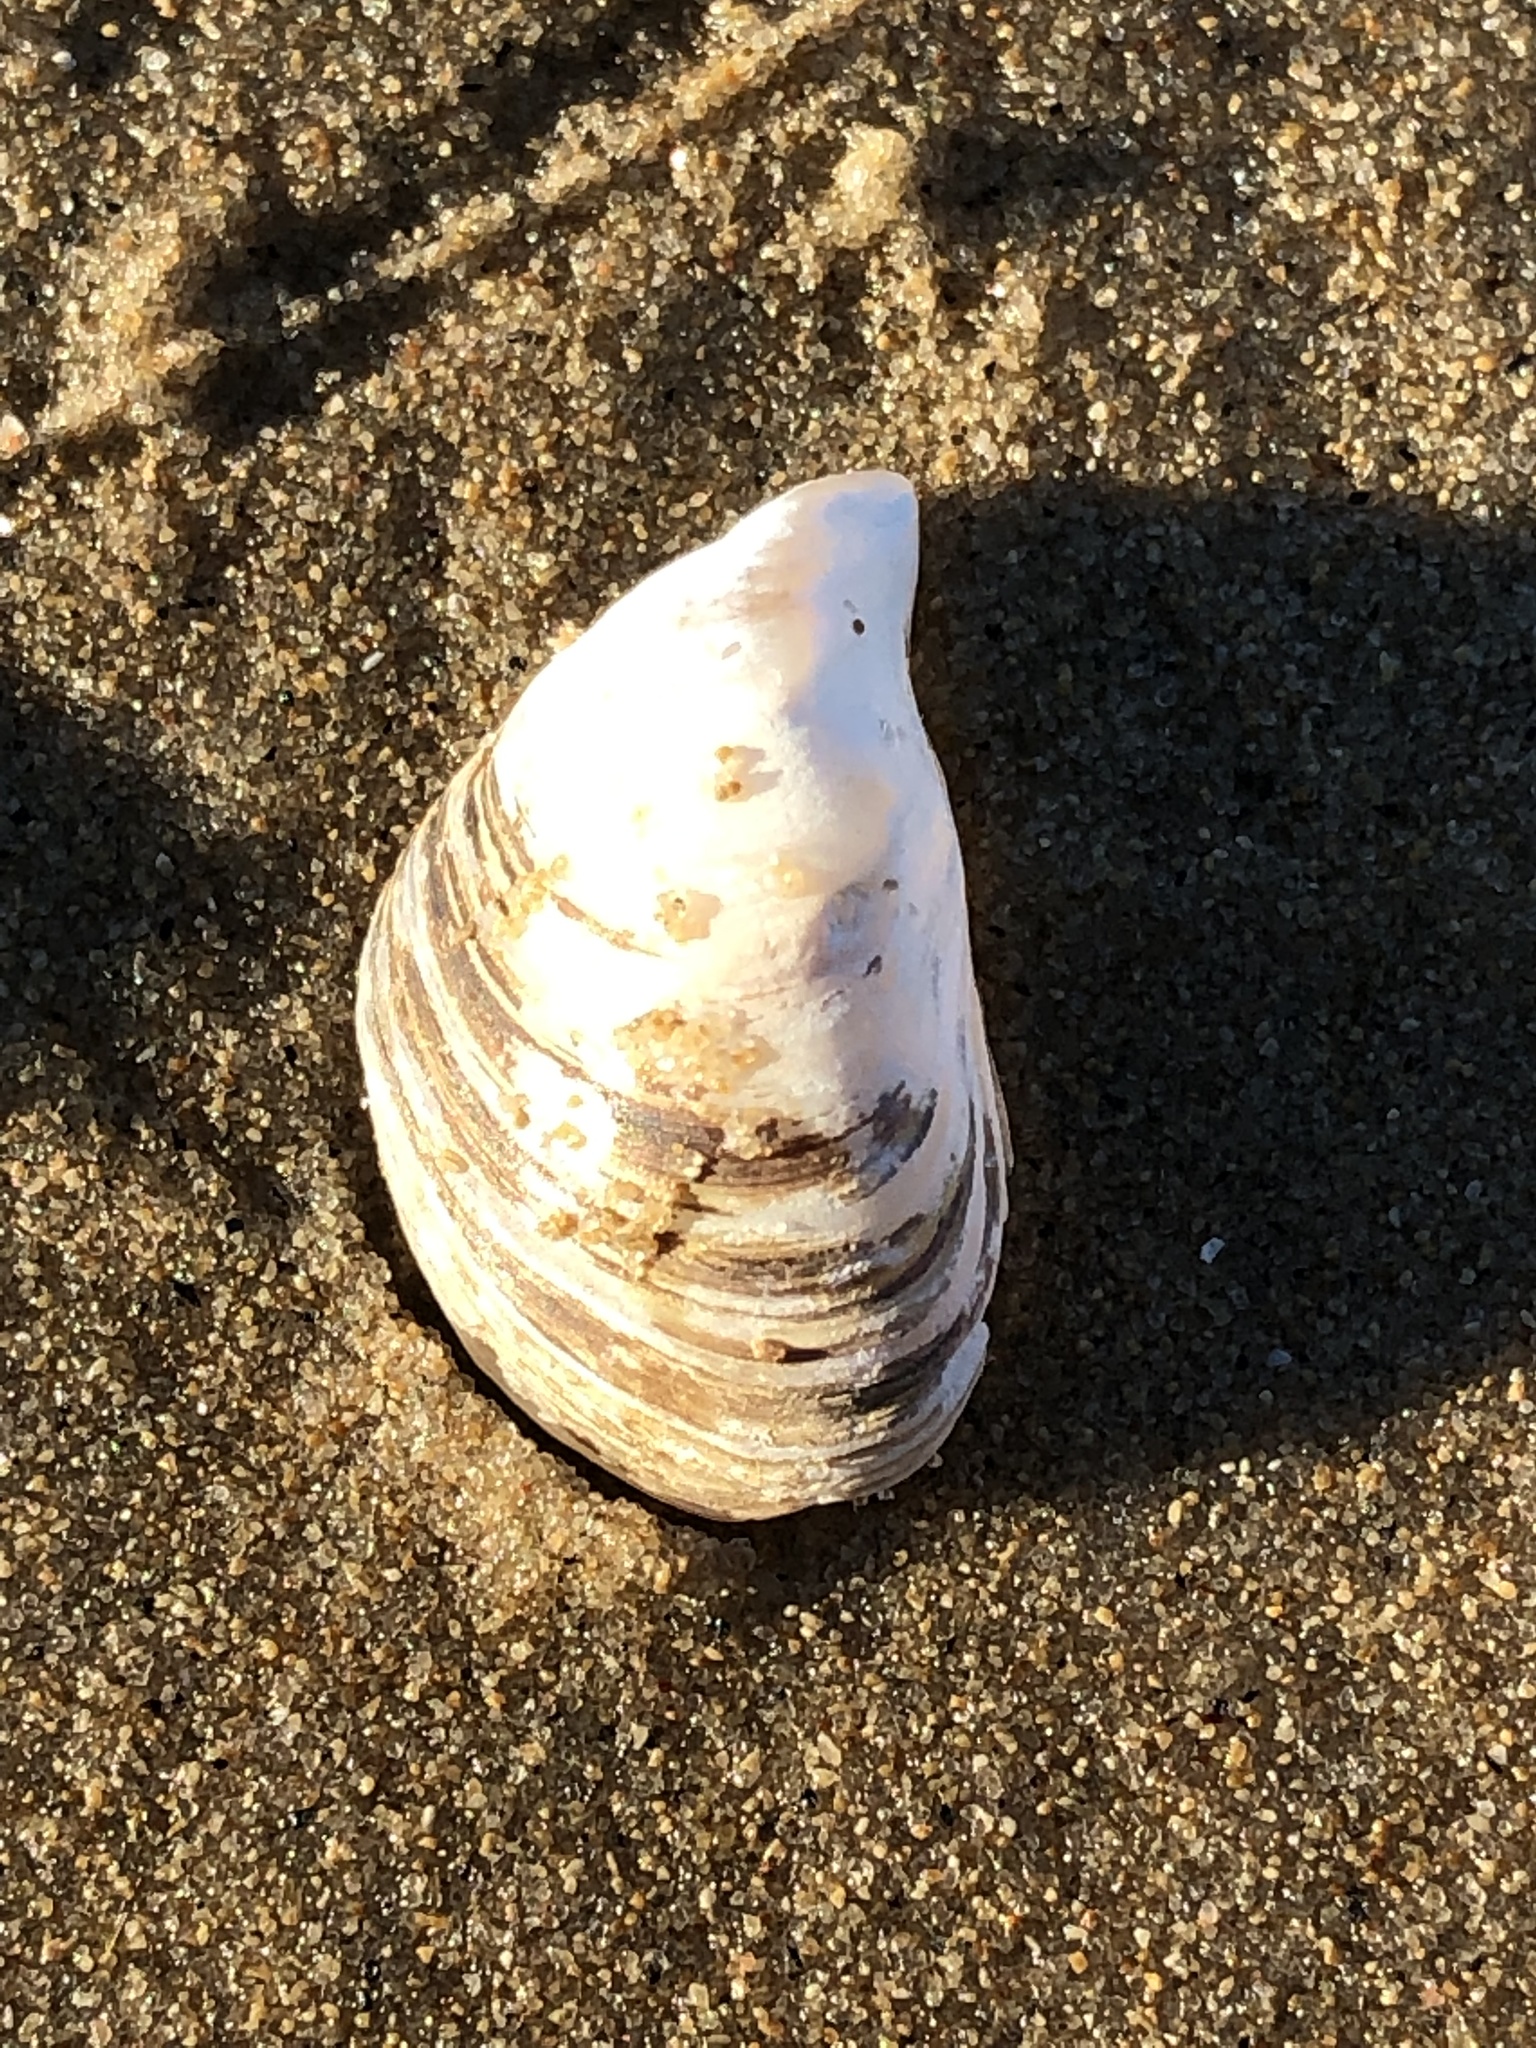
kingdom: Animalia
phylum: Mollusca
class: Bivalvia
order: Myida
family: Dreissenidae
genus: Dreissena
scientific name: Dreissena bugensis
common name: Quagga mussel
